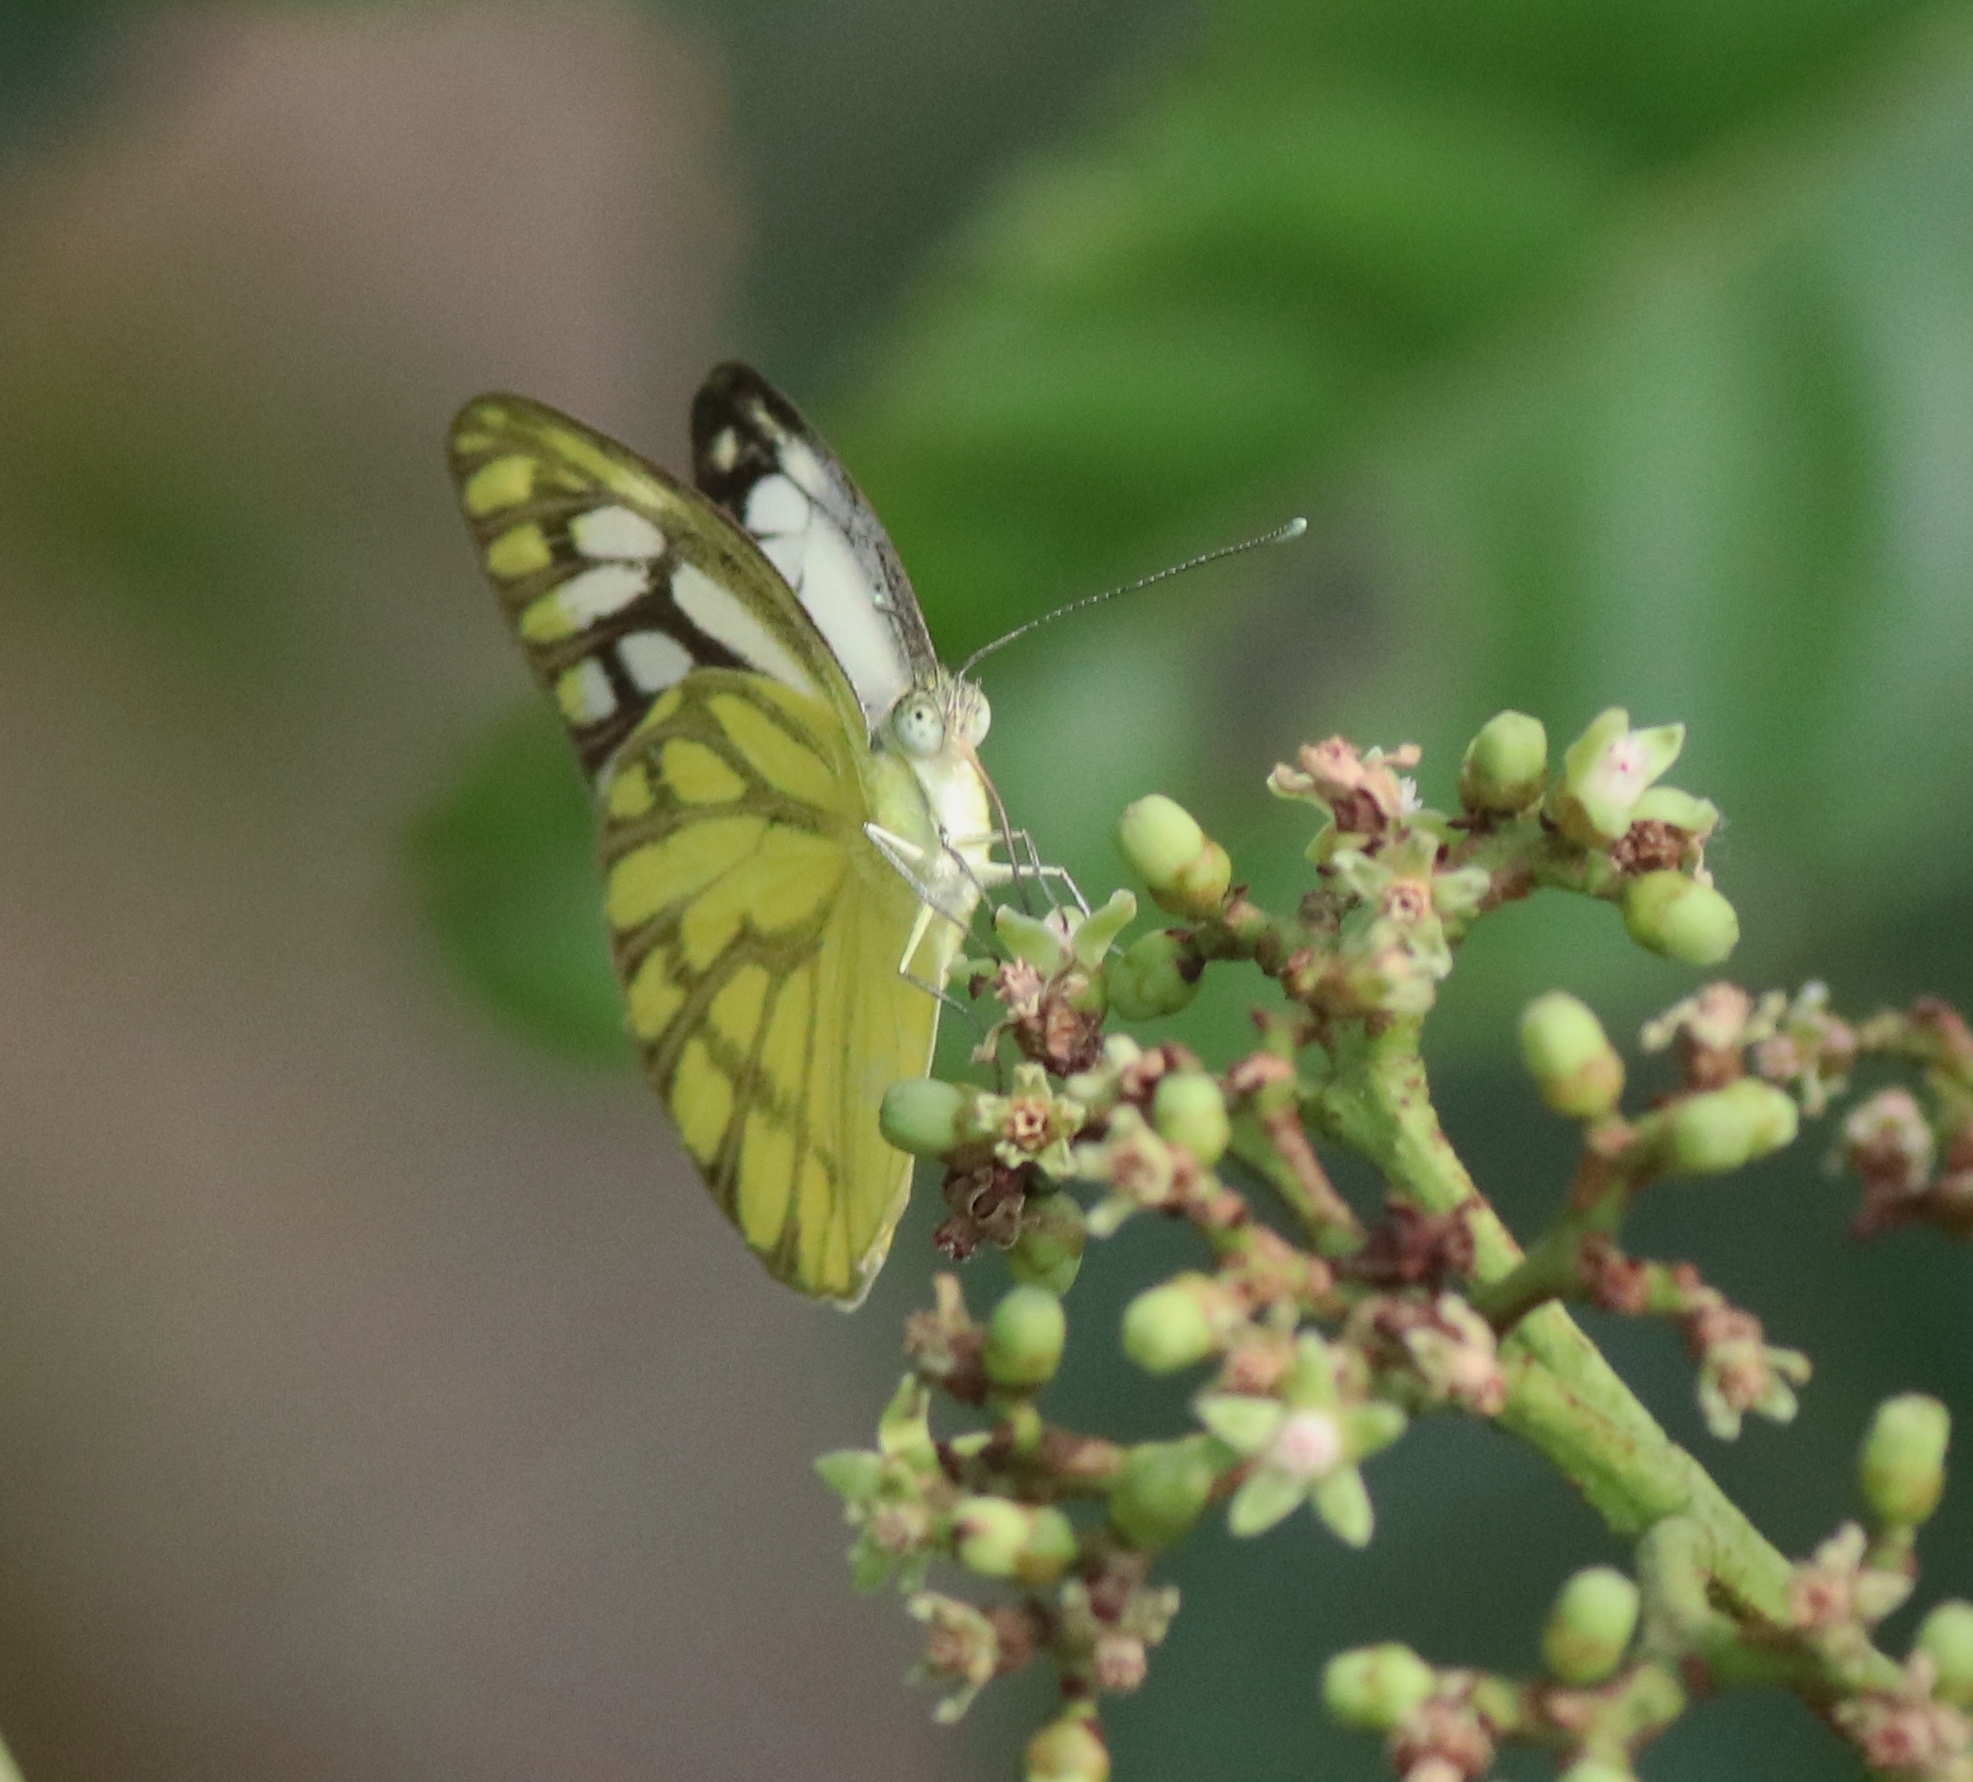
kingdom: Animalia
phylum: Arthropoda
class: Insecta
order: Lepidoptera
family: Pieridae
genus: Cepora
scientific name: Cepora nerissa
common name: Common gull
